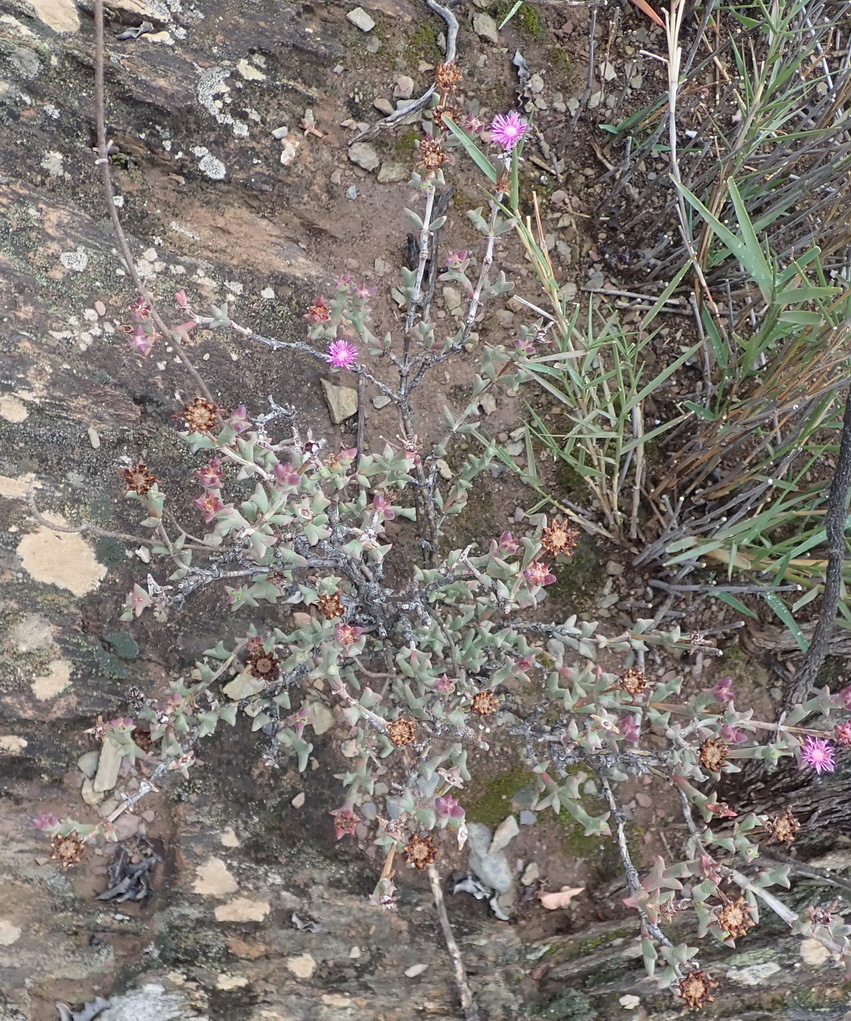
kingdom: Plantae
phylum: Tracheophyta
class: Magnoliopsida
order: Caryophyllales
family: Aizoaceae
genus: Smicrostigma
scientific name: Smicrostigma viride
